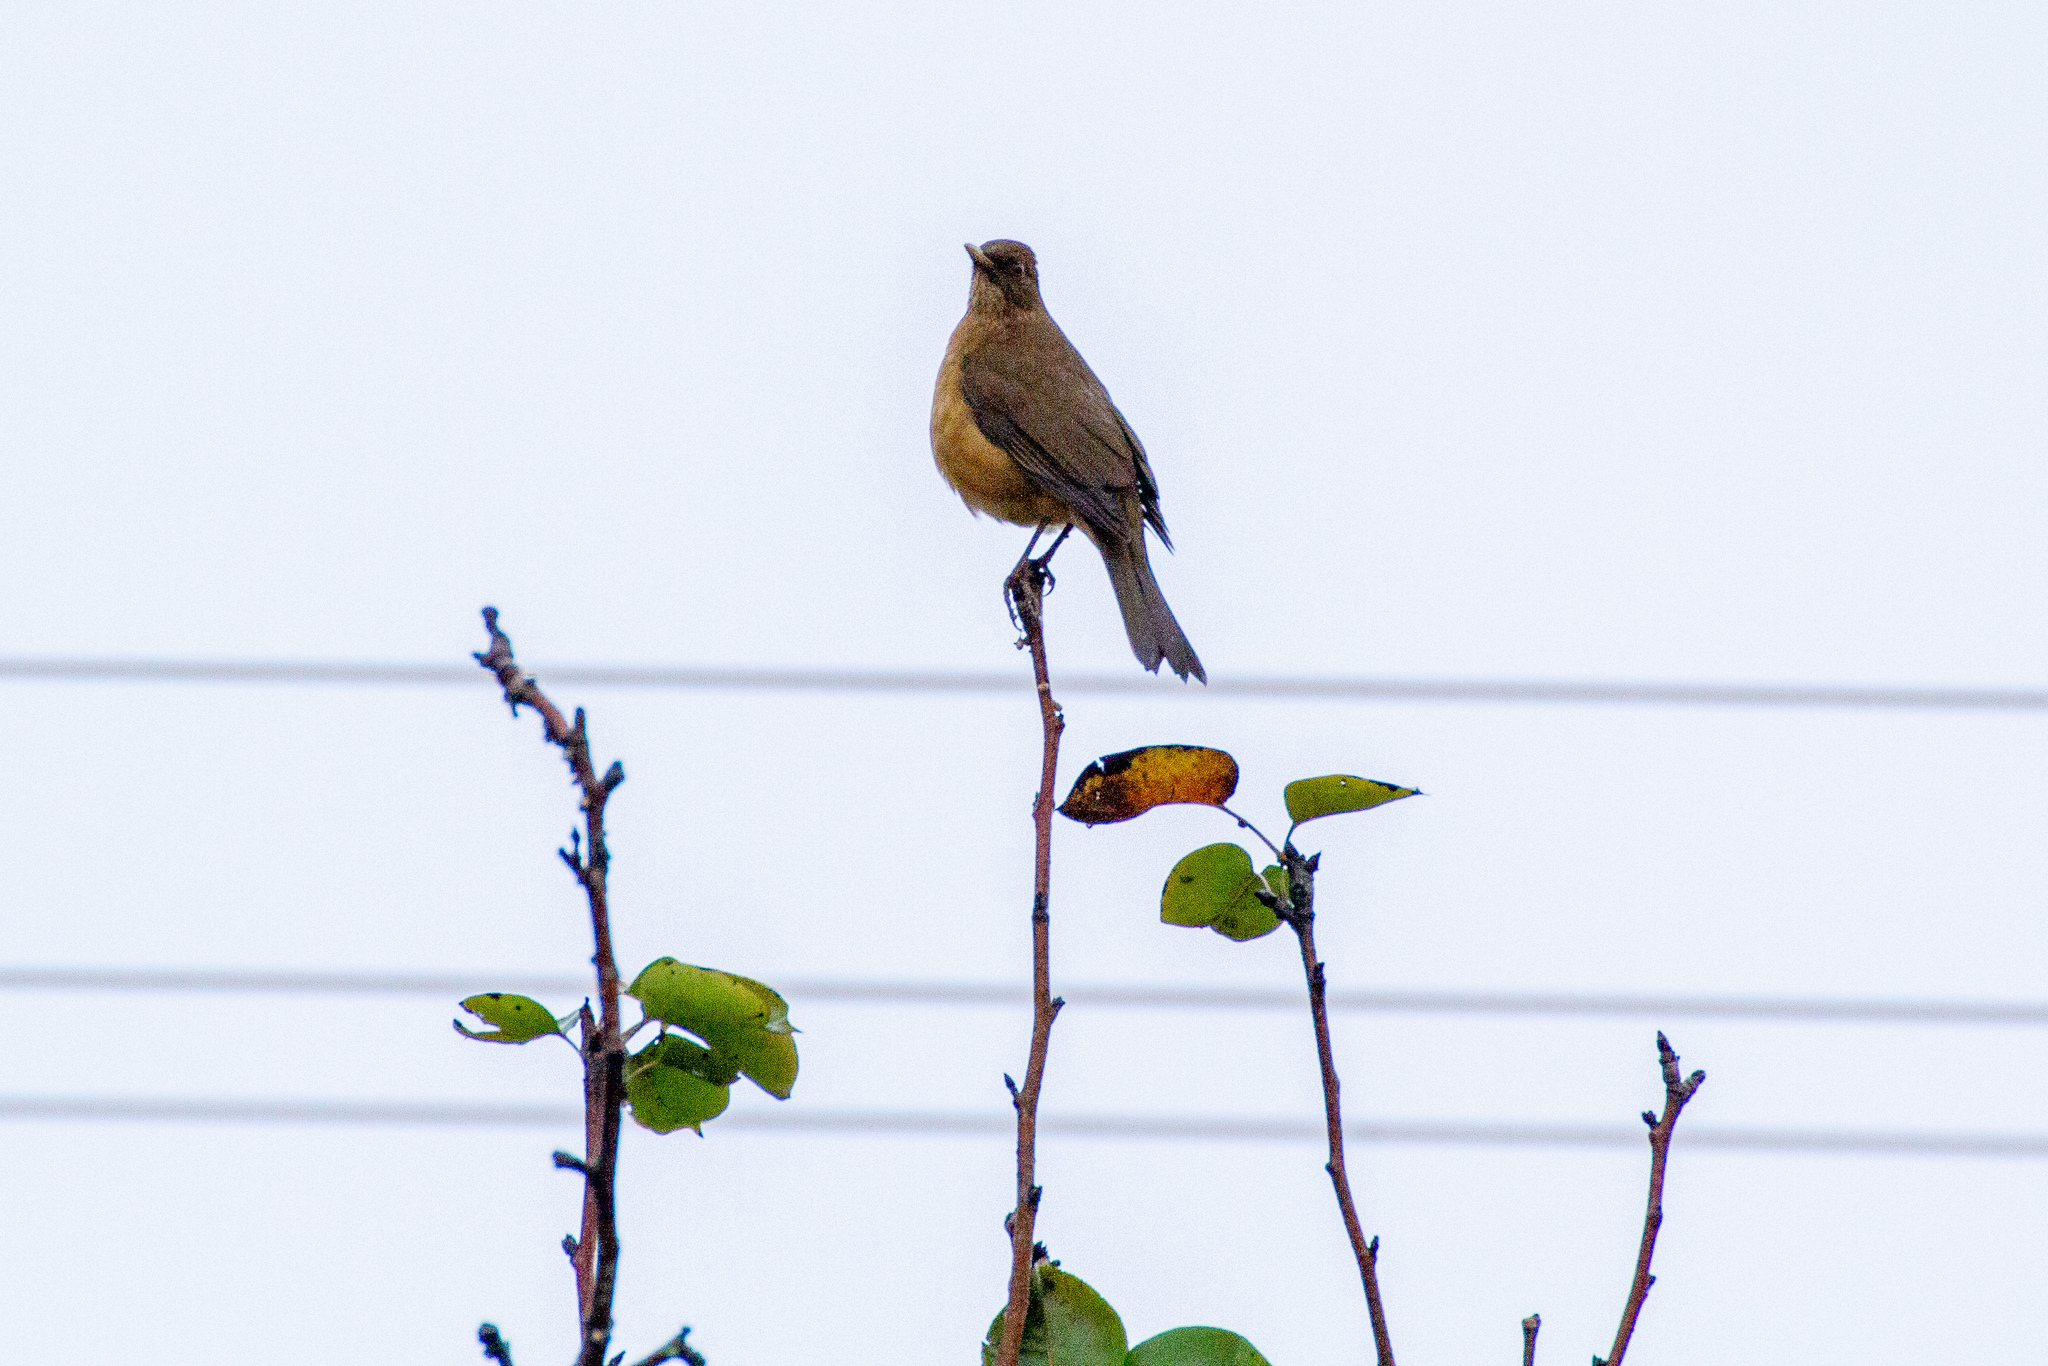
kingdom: Animalia
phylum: Chordata
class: Aves
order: Passeriformes
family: Turdidae
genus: Turdus
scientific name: Turdus grayi
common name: Clay-colored thrush
